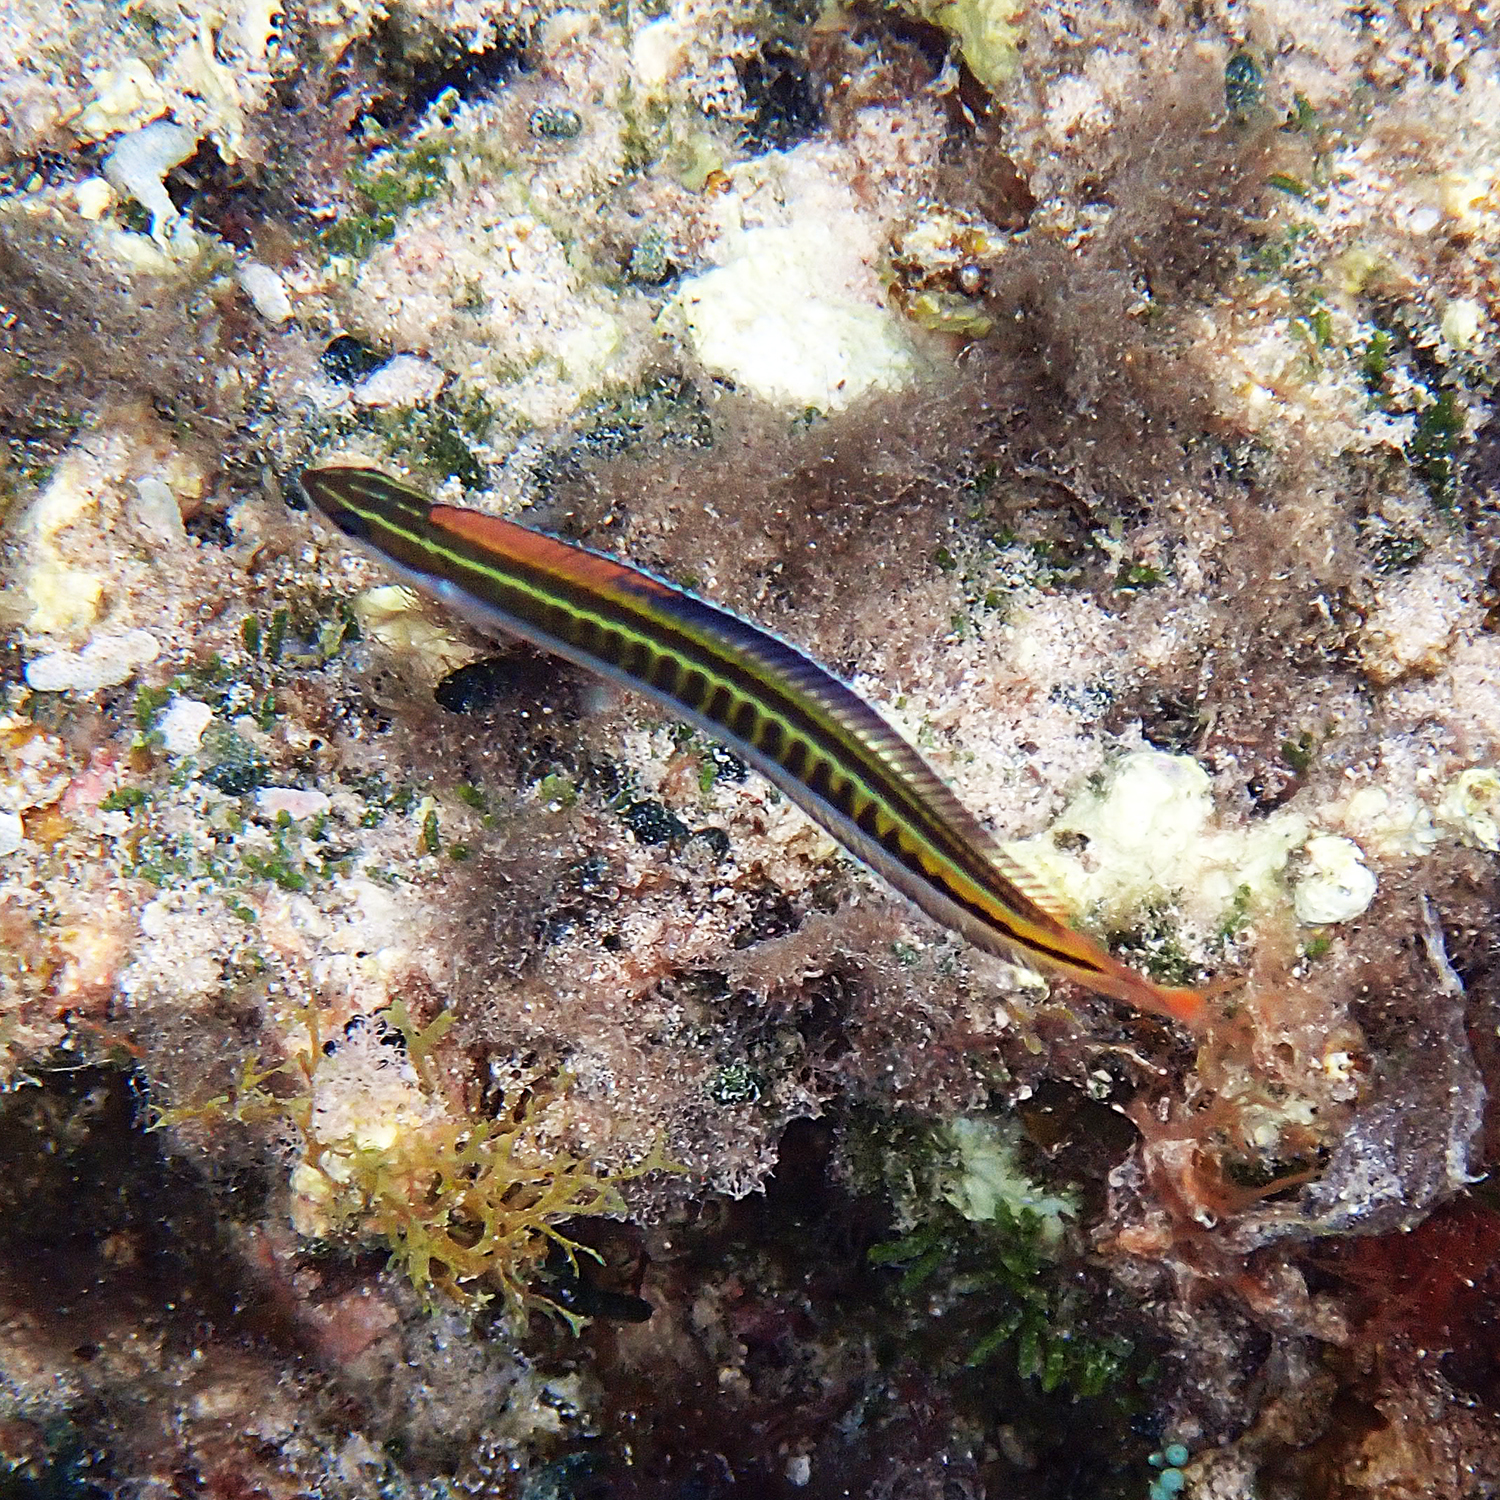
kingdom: Animalia
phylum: Chordata
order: Perciformes
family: Blenniidae
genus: Plagiotremus
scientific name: Plagiotremus tapeinosoma
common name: Hit and run blenny
